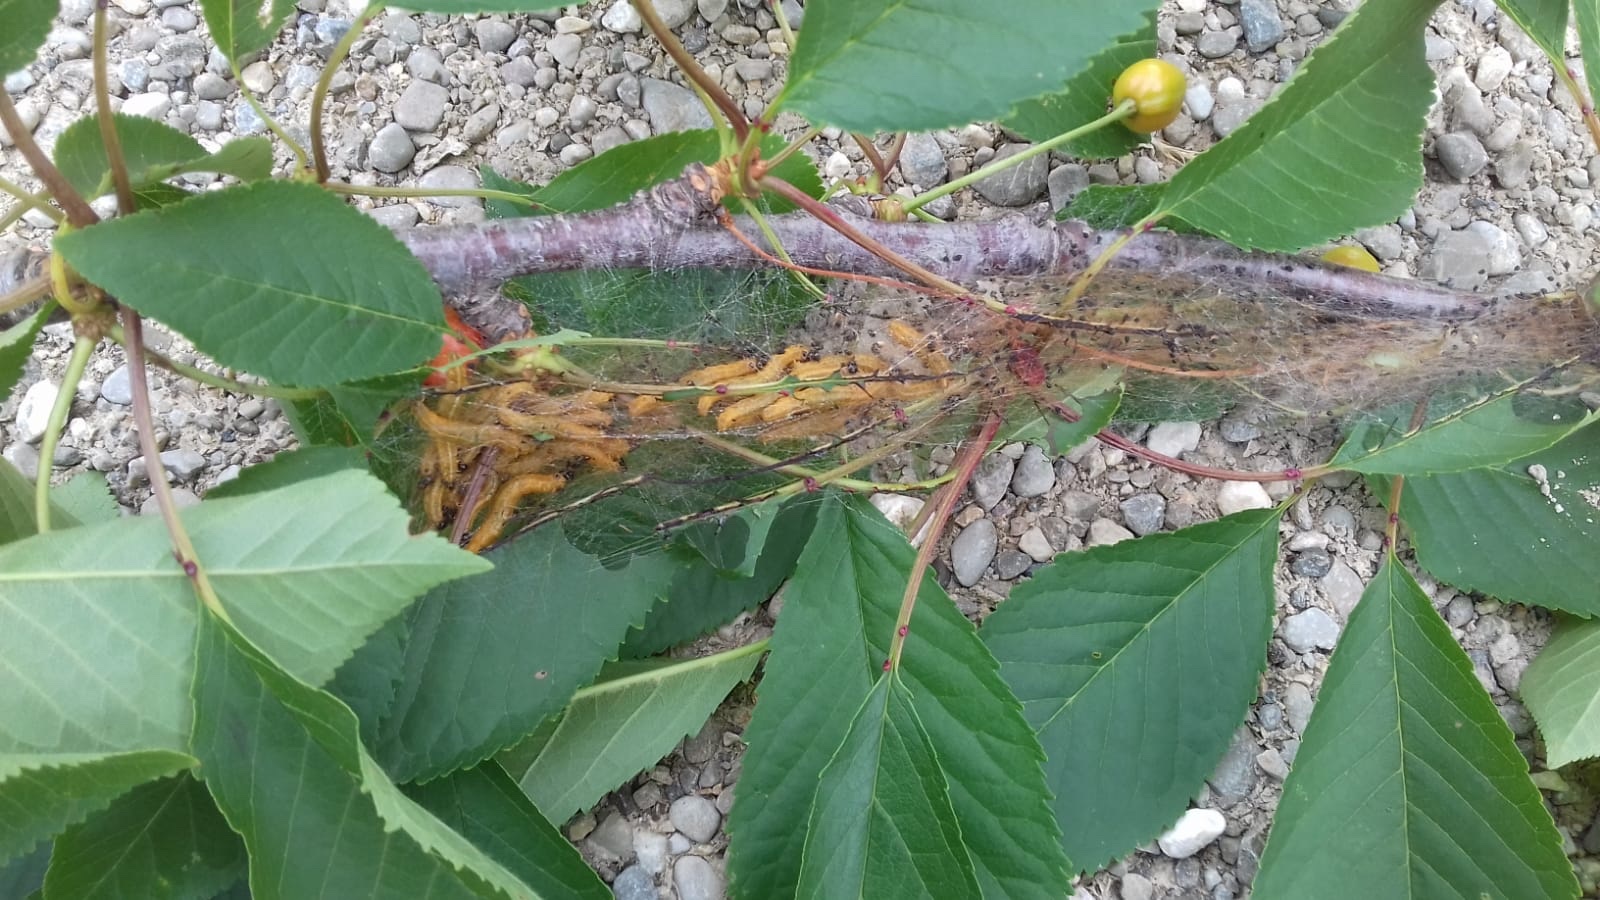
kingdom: Animalia
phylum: Arthropoda
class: Insecta
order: Hymenoptera
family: Pamphiliidae
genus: Neurotoma
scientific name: Neurotoma saltuum
